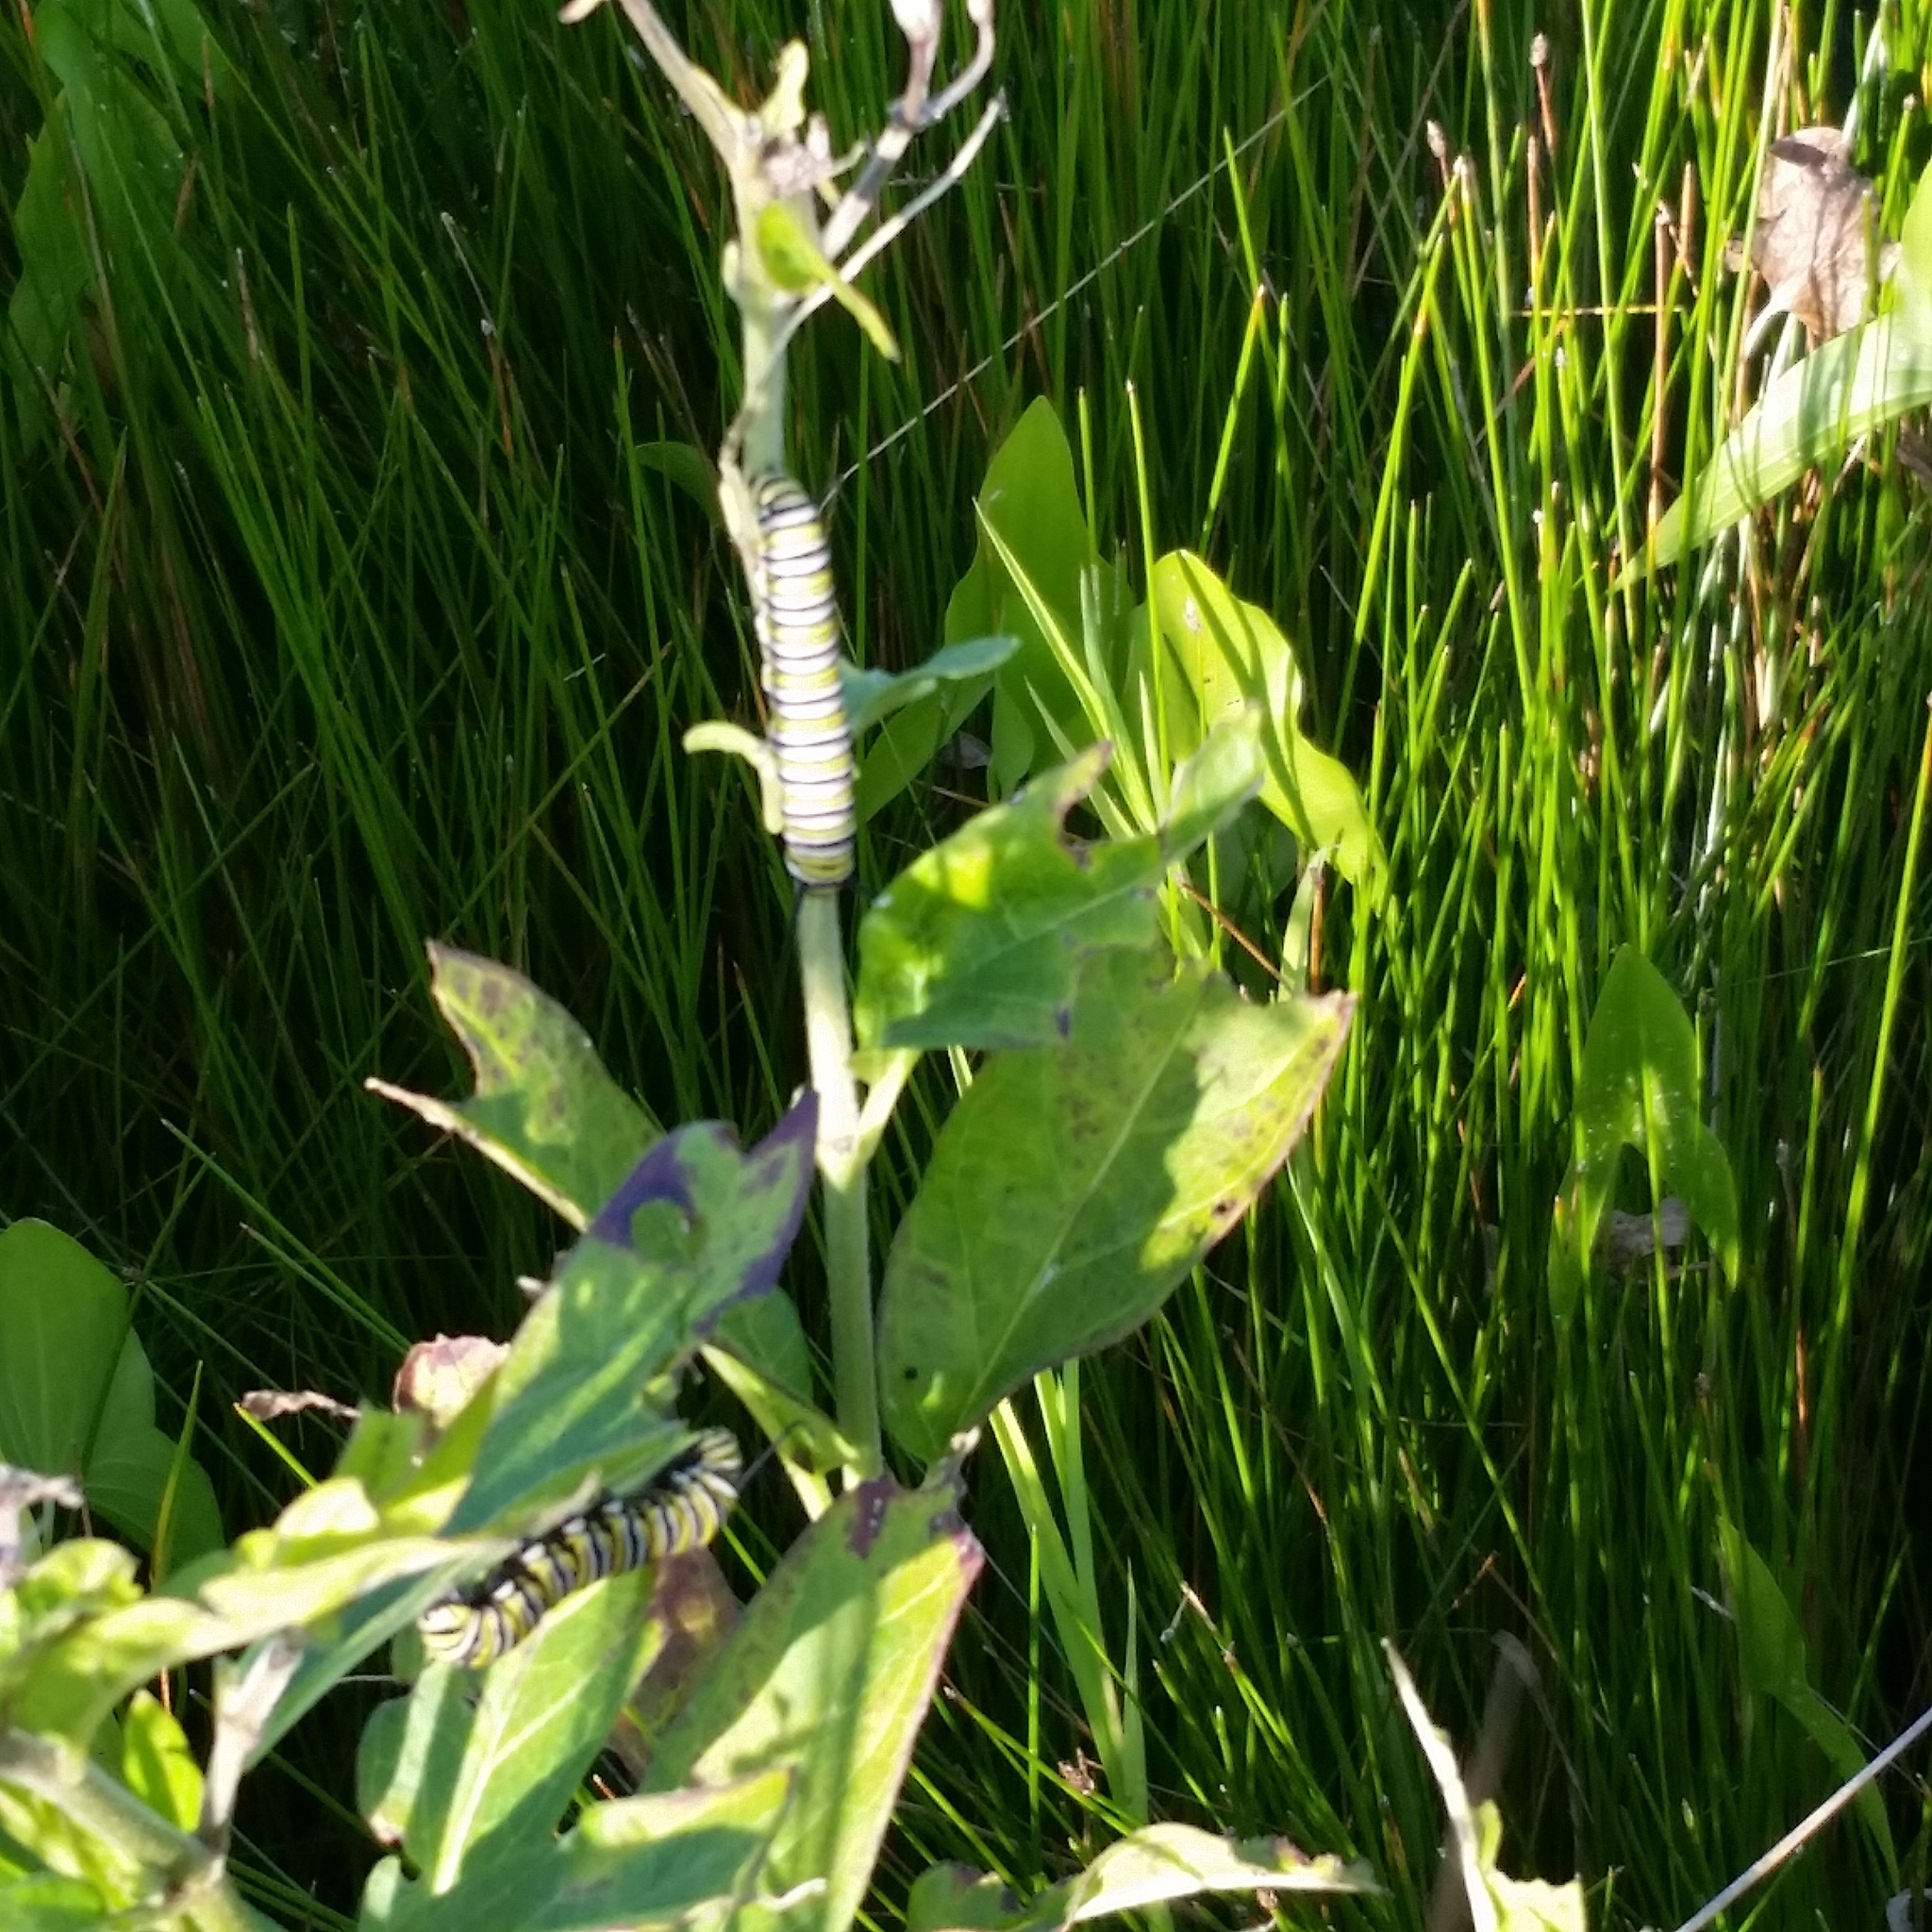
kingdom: Animalia
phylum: Arthropoda
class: Insecta
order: Lepidoptera
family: Nymphalidae
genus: Danaus
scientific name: Danaus plexippus
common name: Monarch
